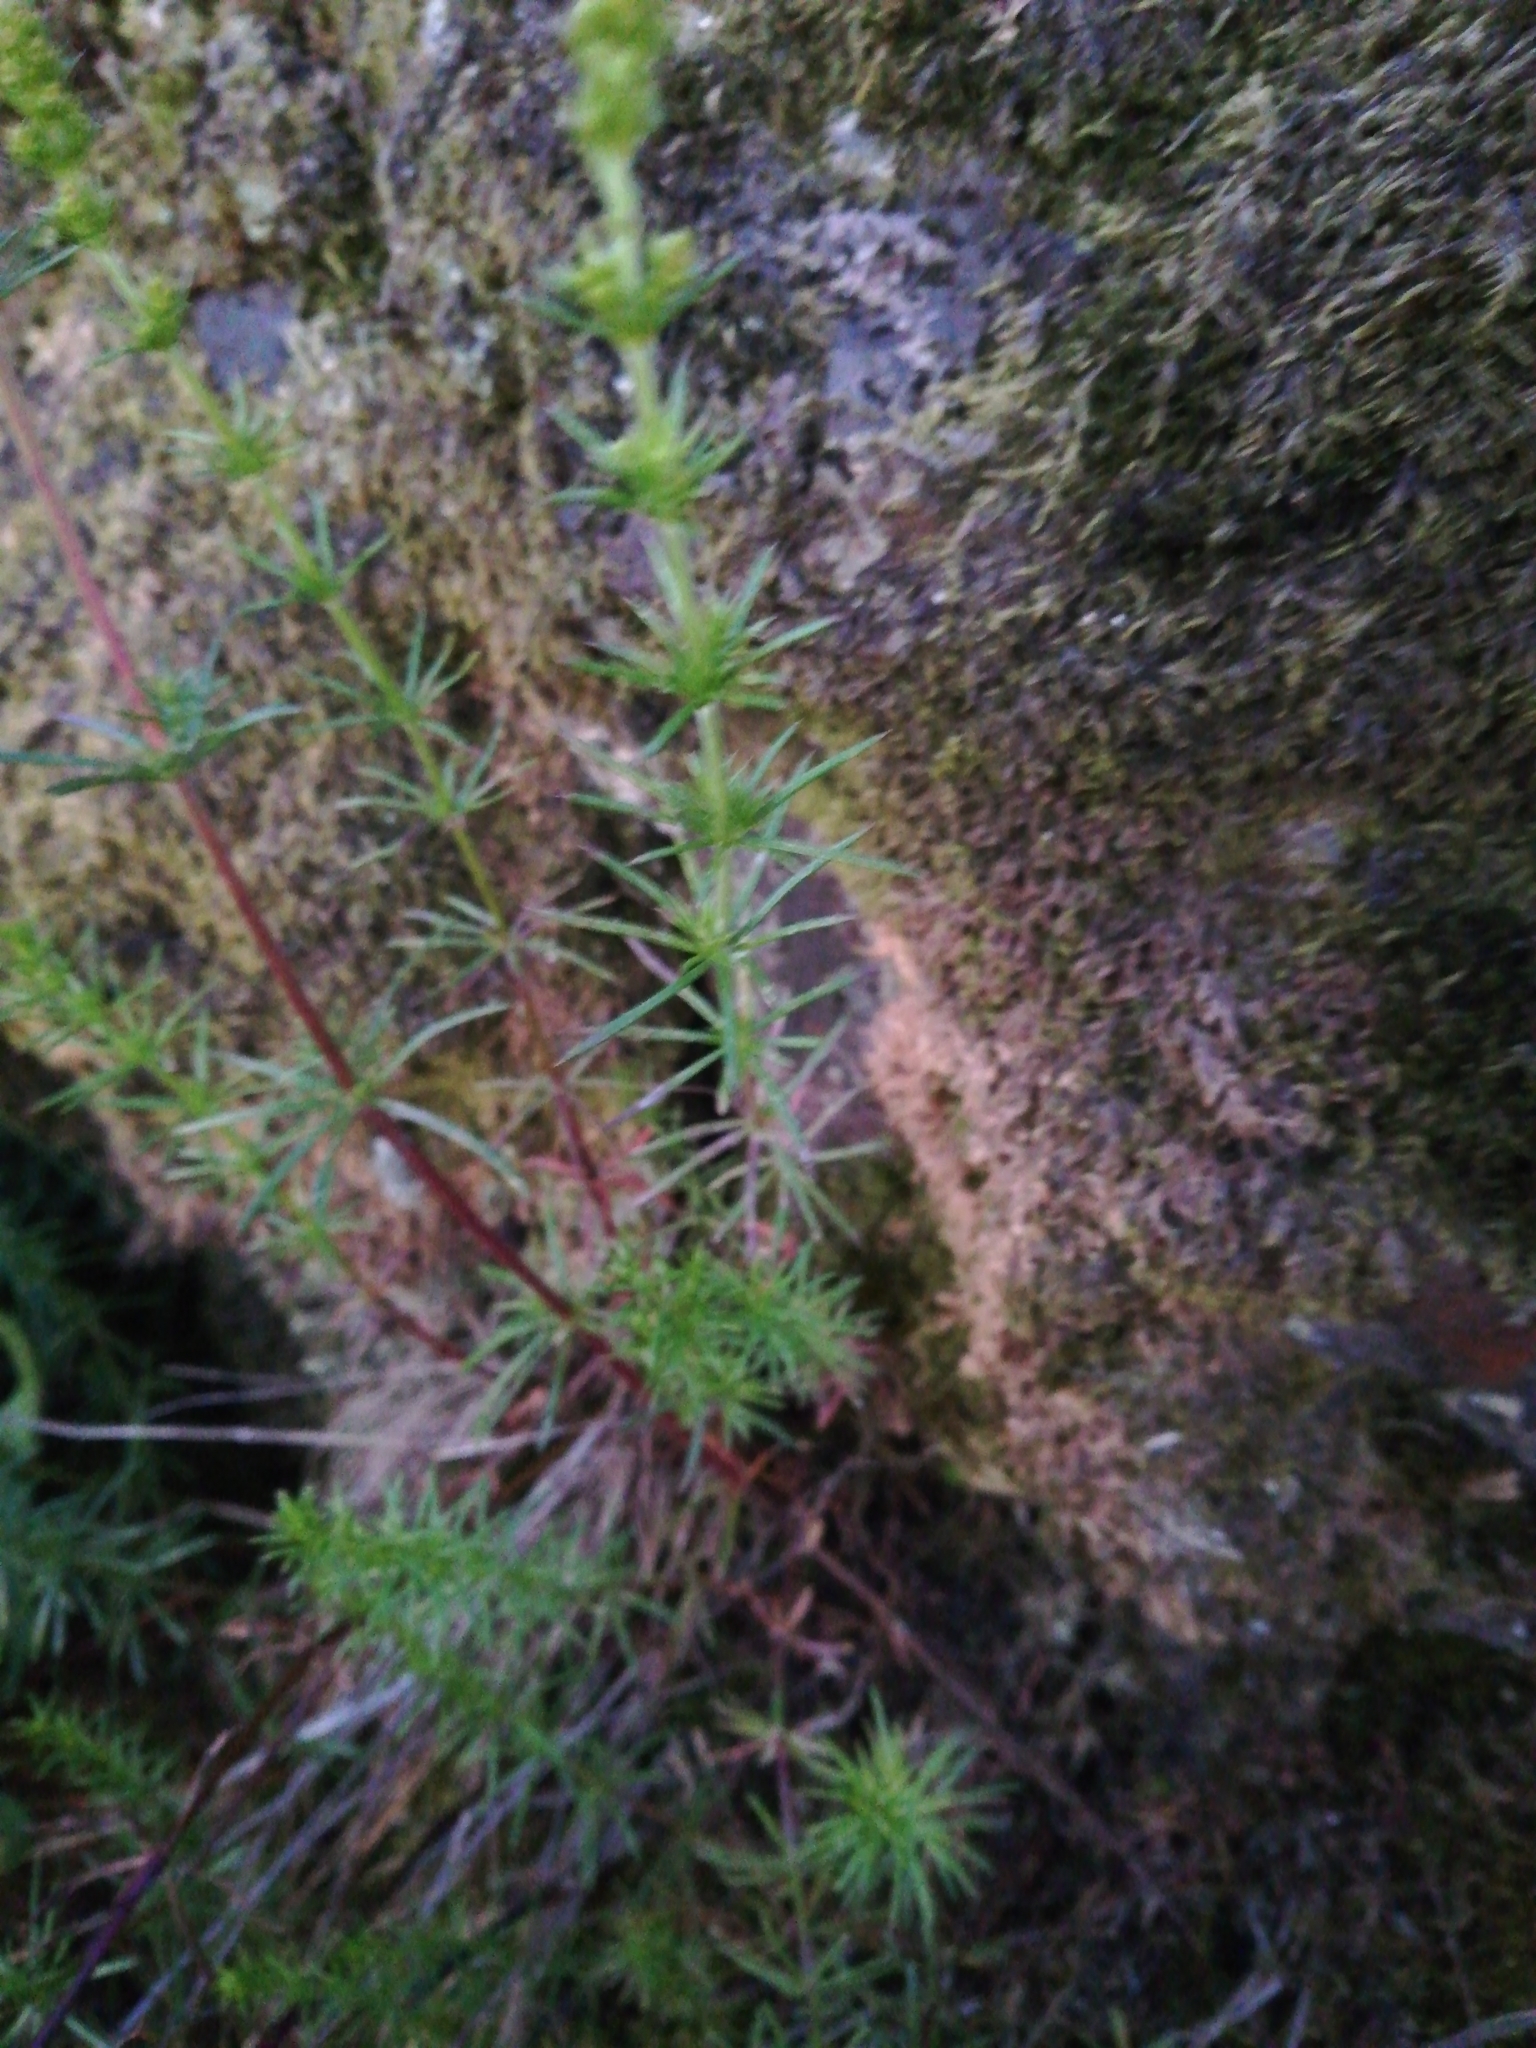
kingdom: Plantae
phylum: Tracheophyta
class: Magnoliopsida
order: Gentianales
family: Rubiaceae
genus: Galium
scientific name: Galium verum
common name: Lady's bedstraw
